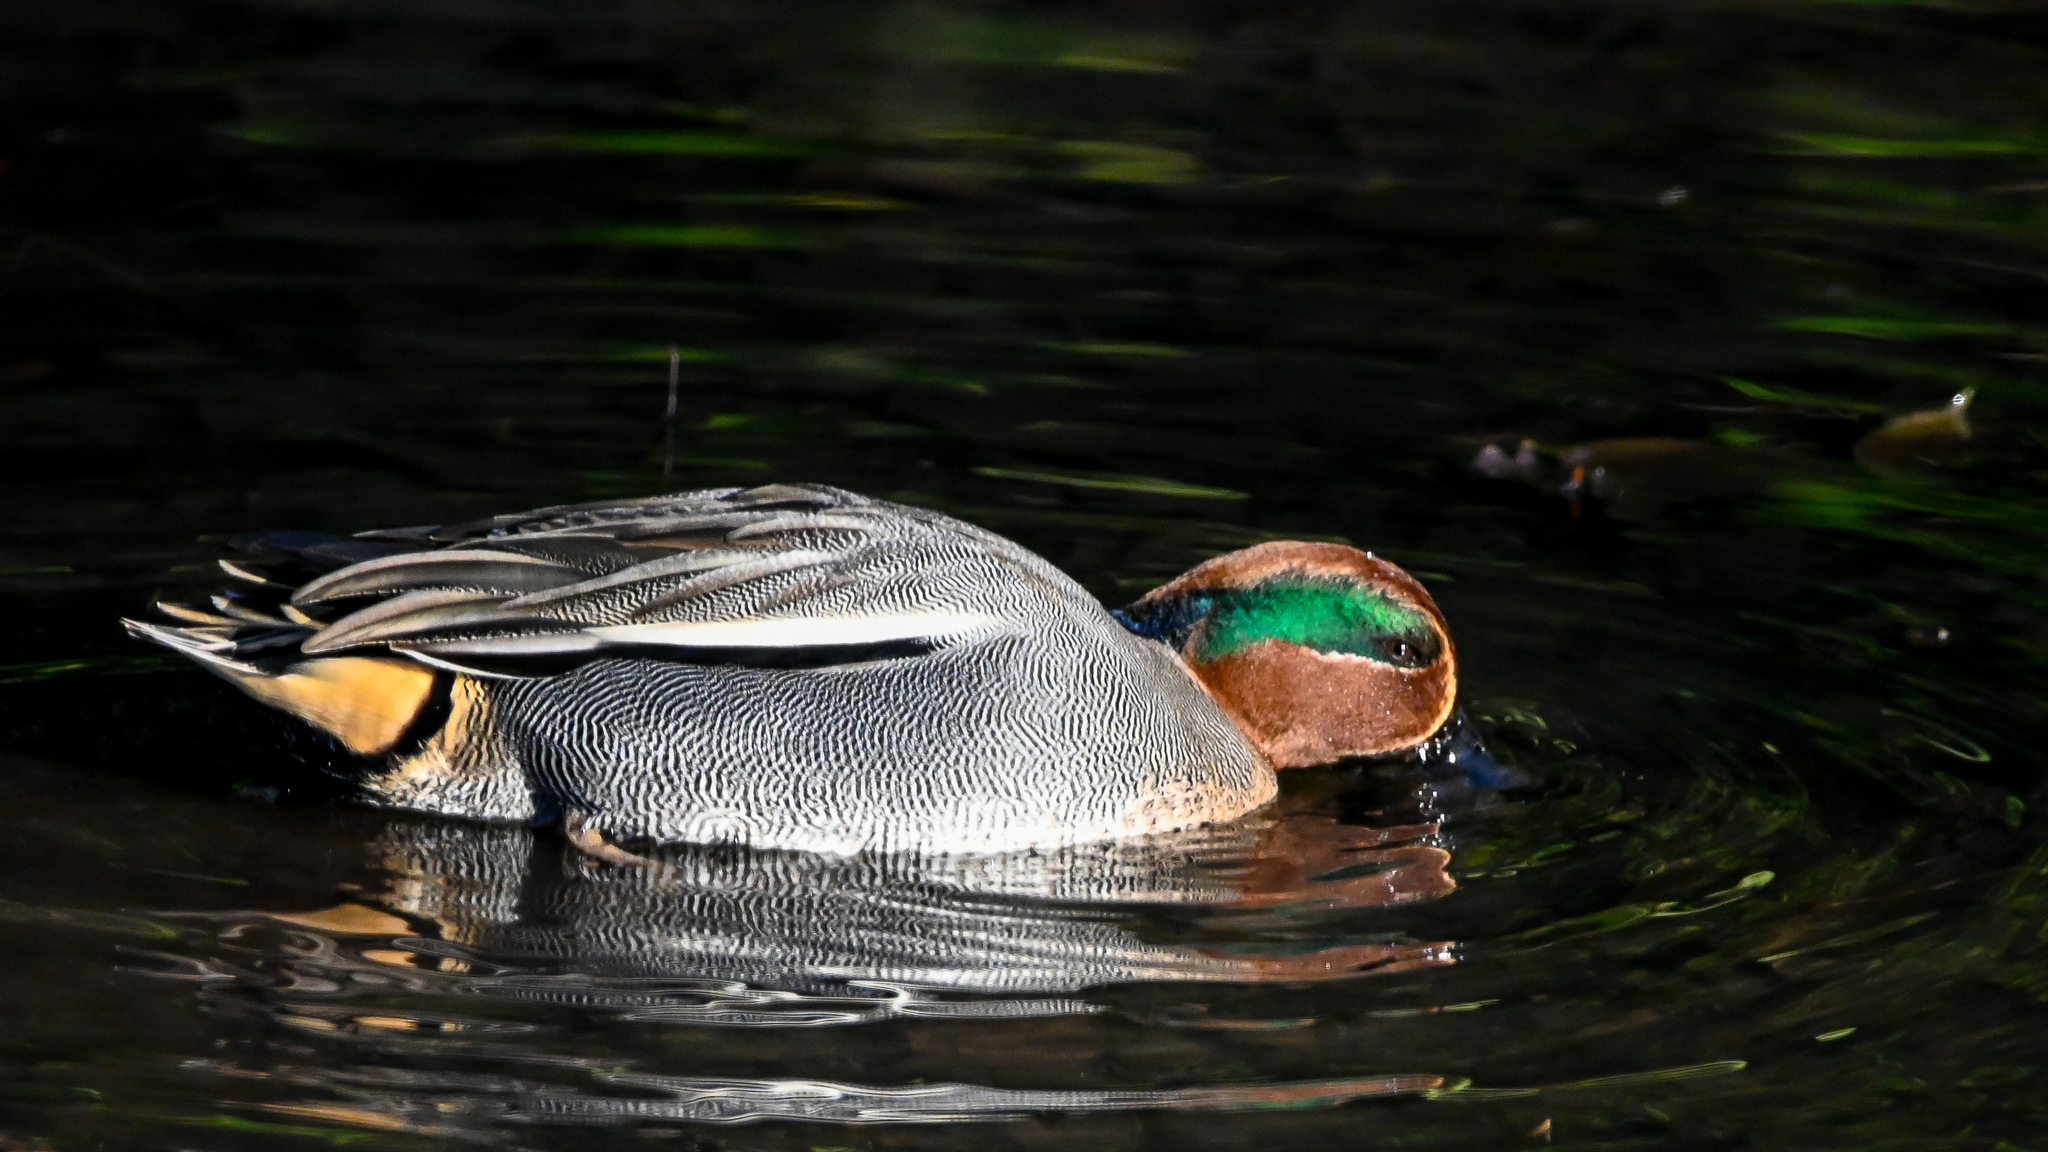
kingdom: Animalia
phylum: Chordata
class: Aves
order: Anseriformes
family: Anatidae
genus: Anas
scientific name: Anas crecca
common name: Eurasian teal
